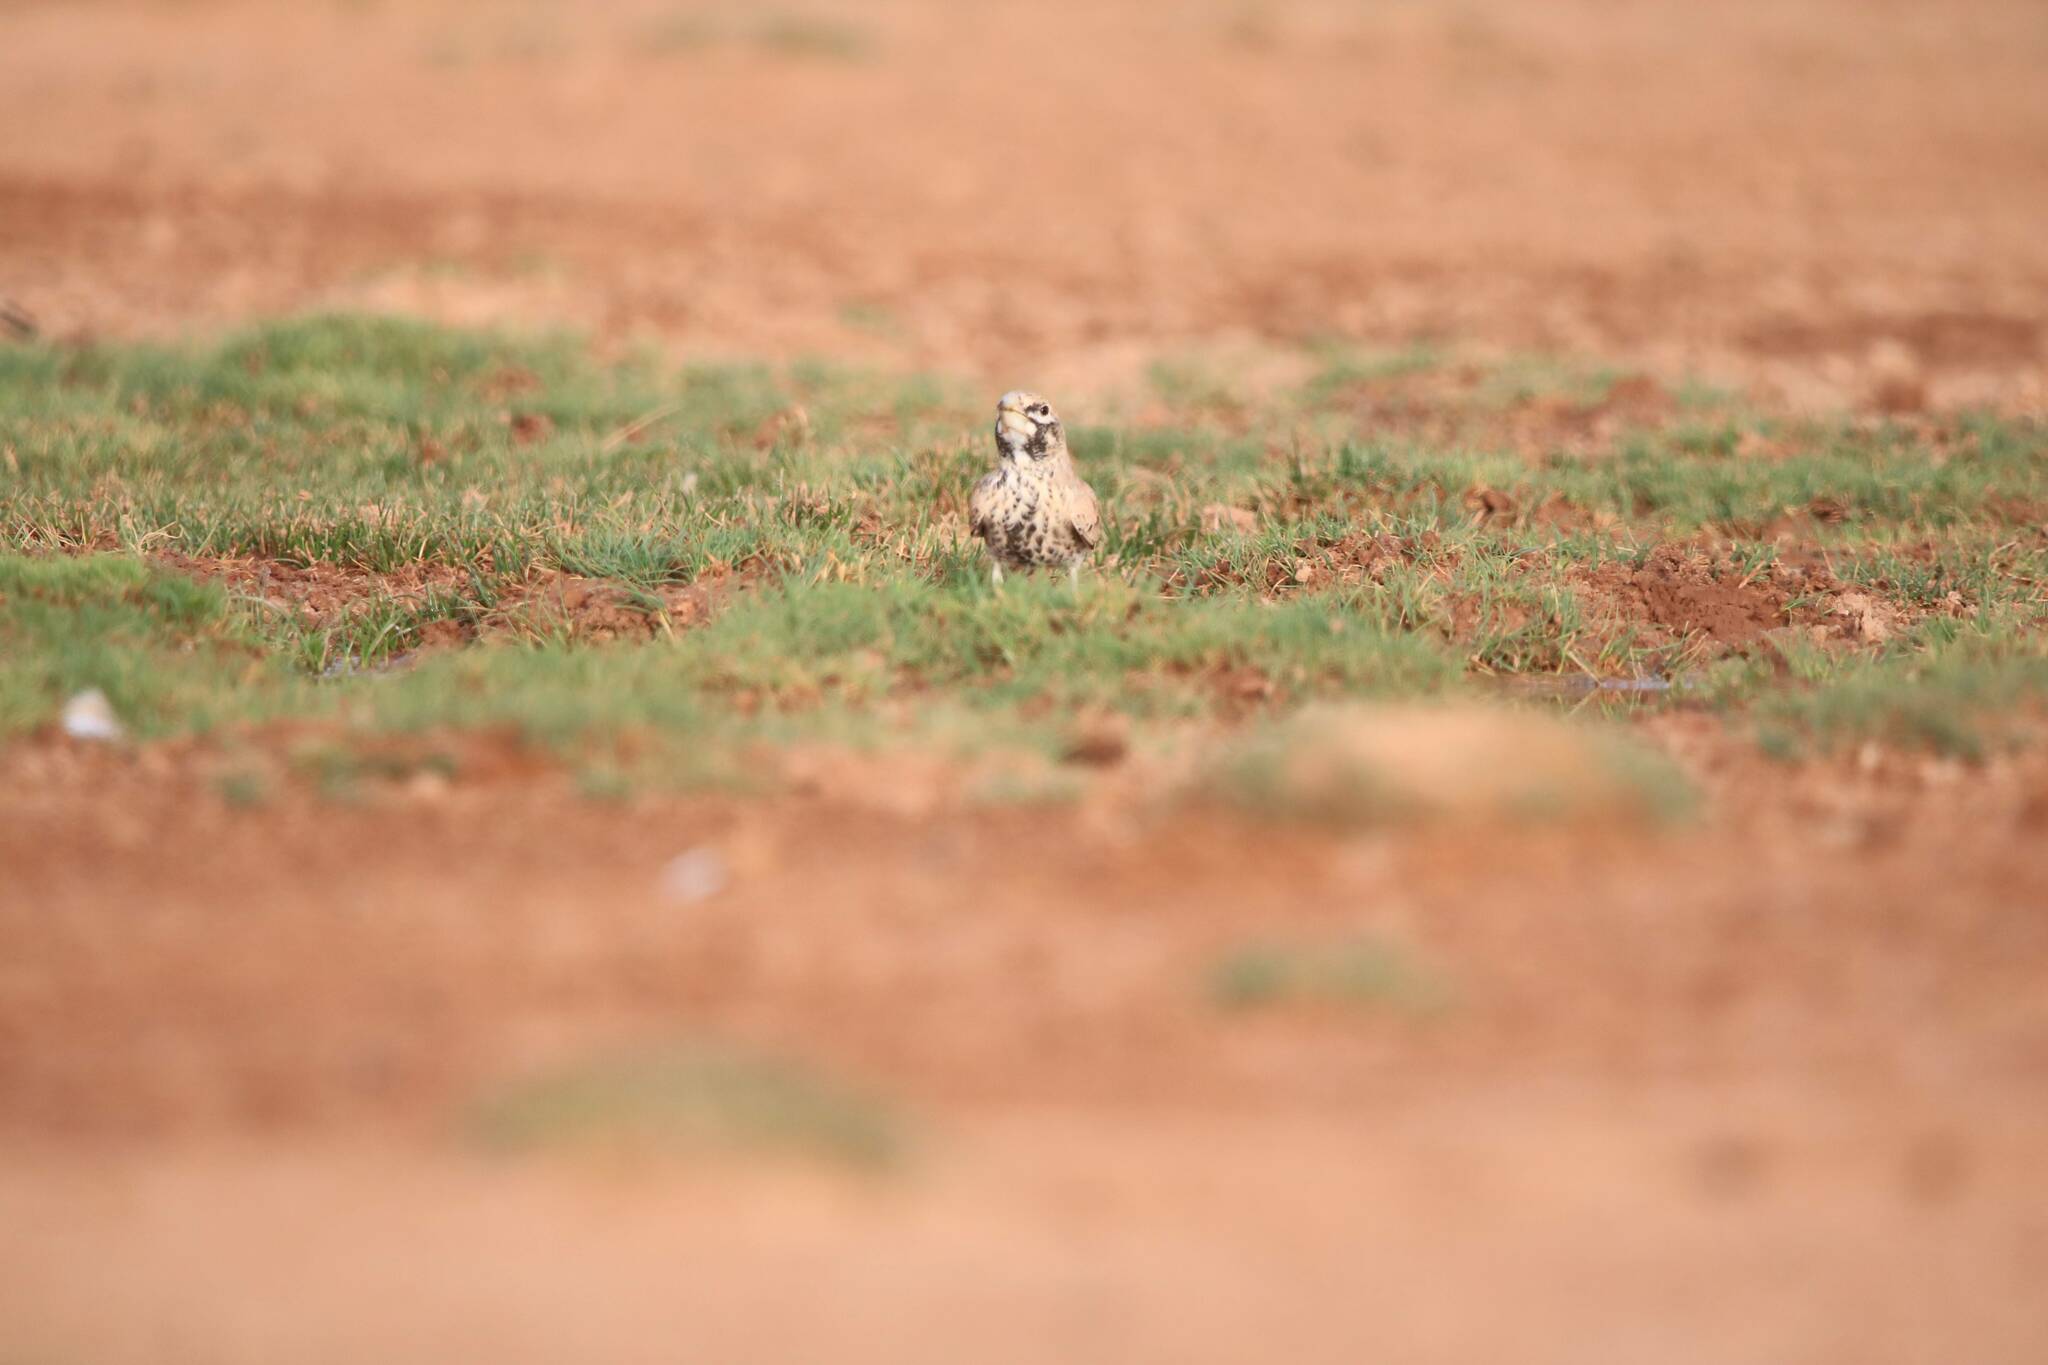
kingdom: Animalia
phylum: Chordata
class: Aves
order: Passeriformes
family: Alaudidae
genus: Ramphocoris
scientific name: Ramphocoris clotbey
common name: Thick-billed lark
